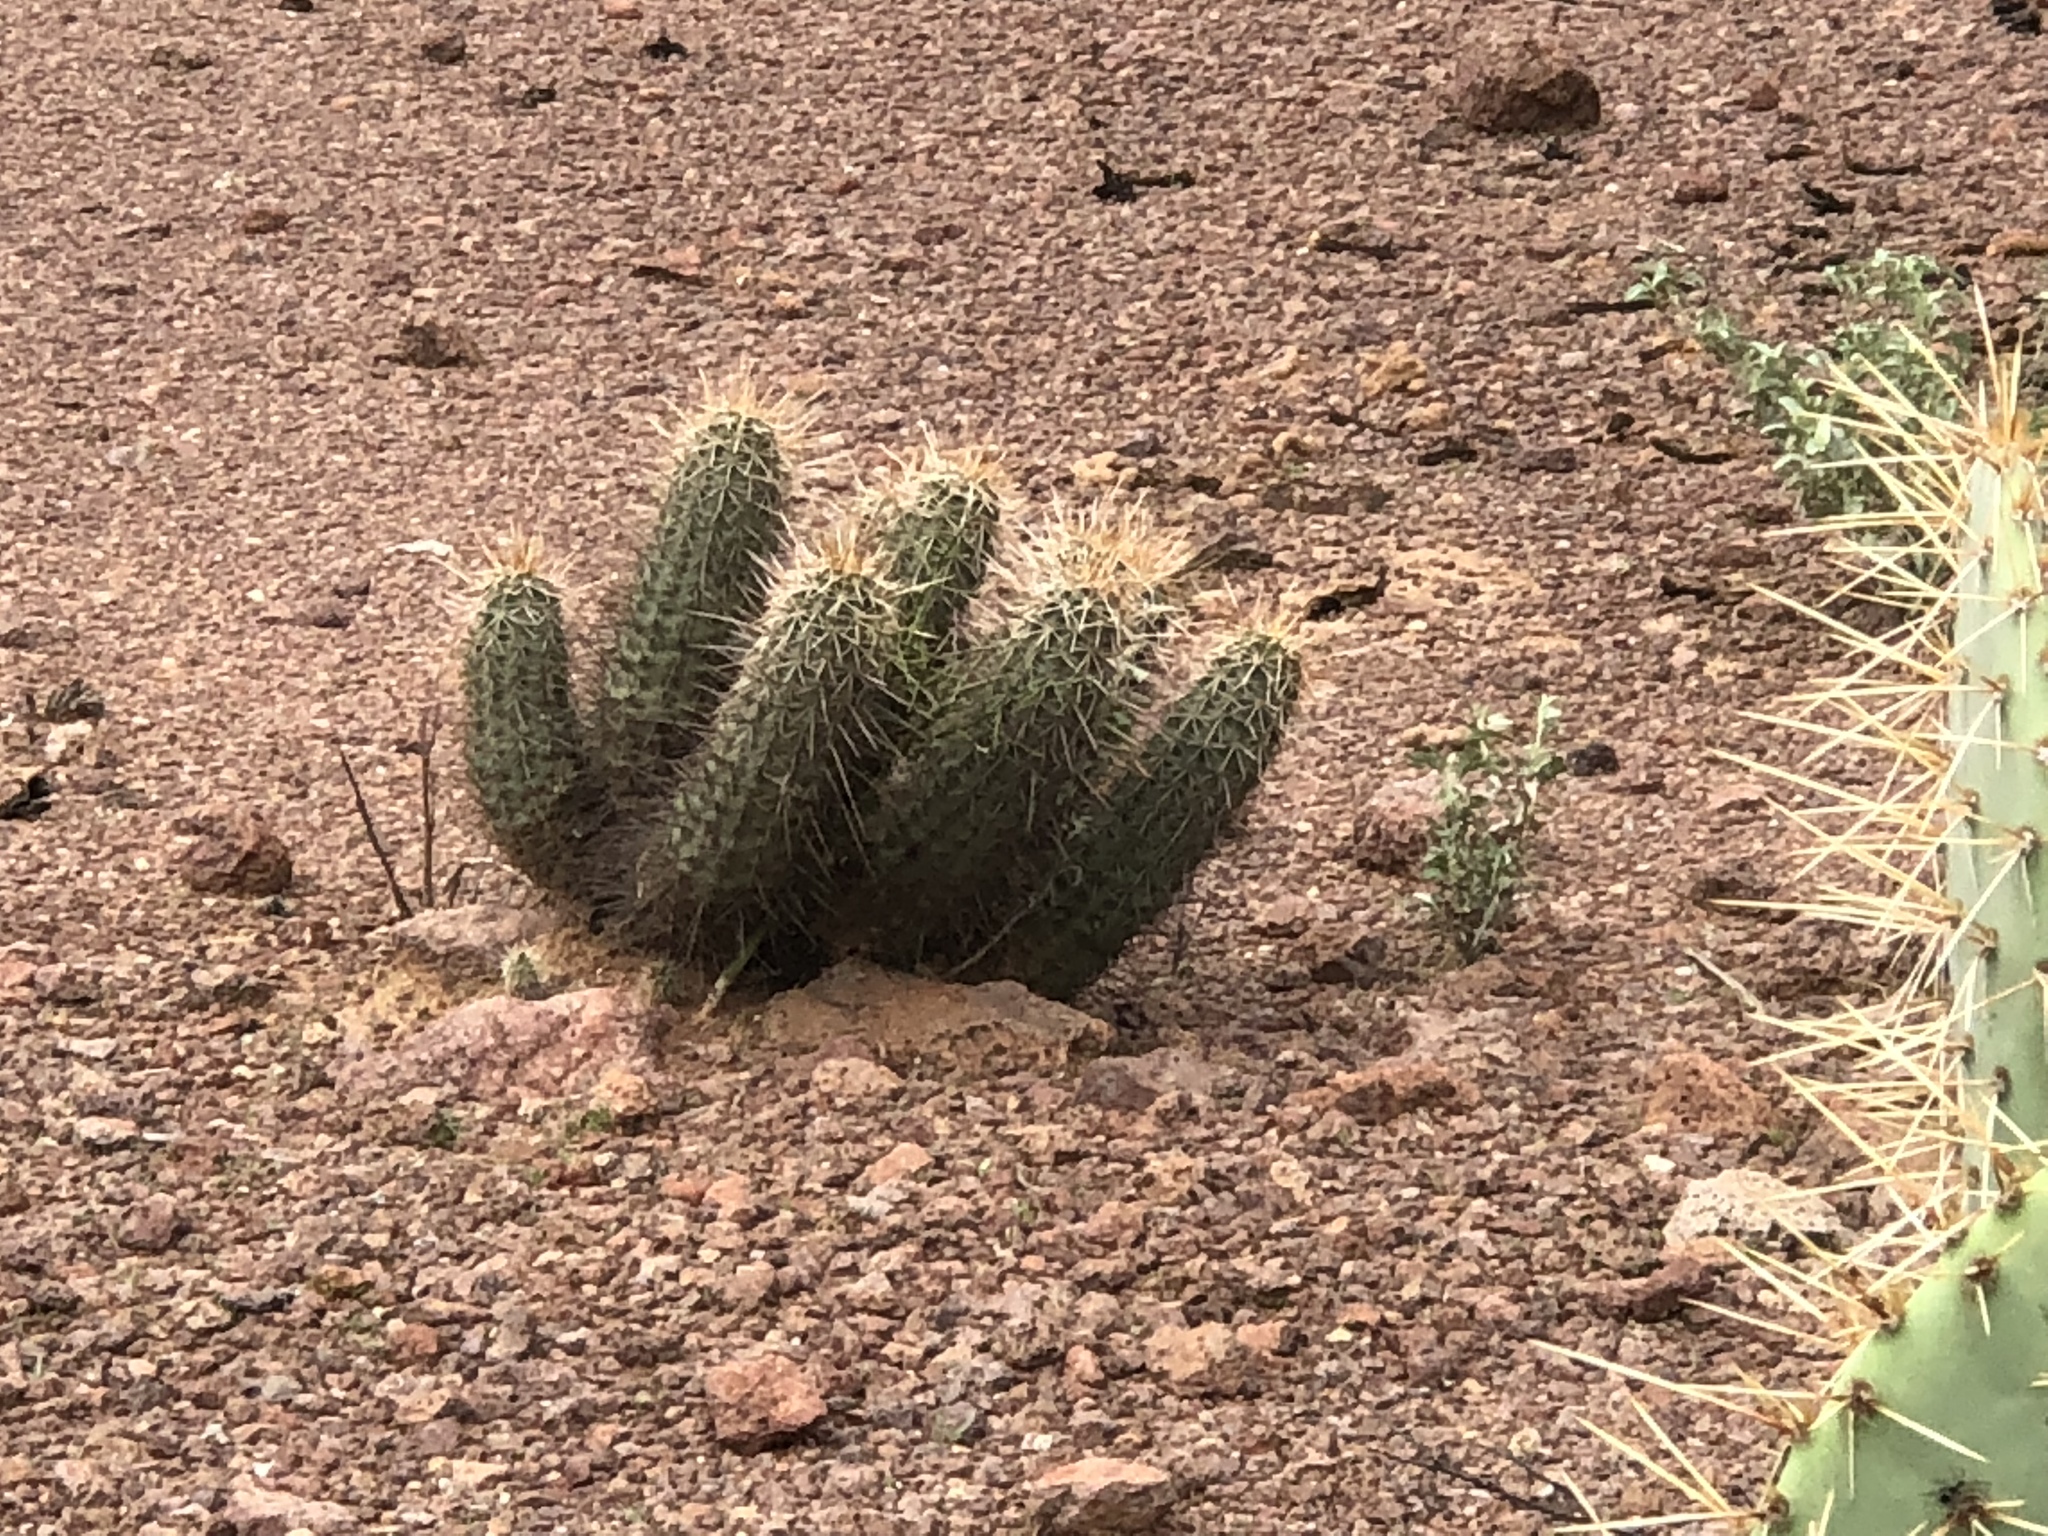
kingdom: Plantae
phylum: Tracheophyta
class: Magnoliopsida
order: Caryophyllales
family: Cactaceae
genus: Echinocereus
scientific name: Echinocereus fasciculatus
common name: Bundle hedgehog
